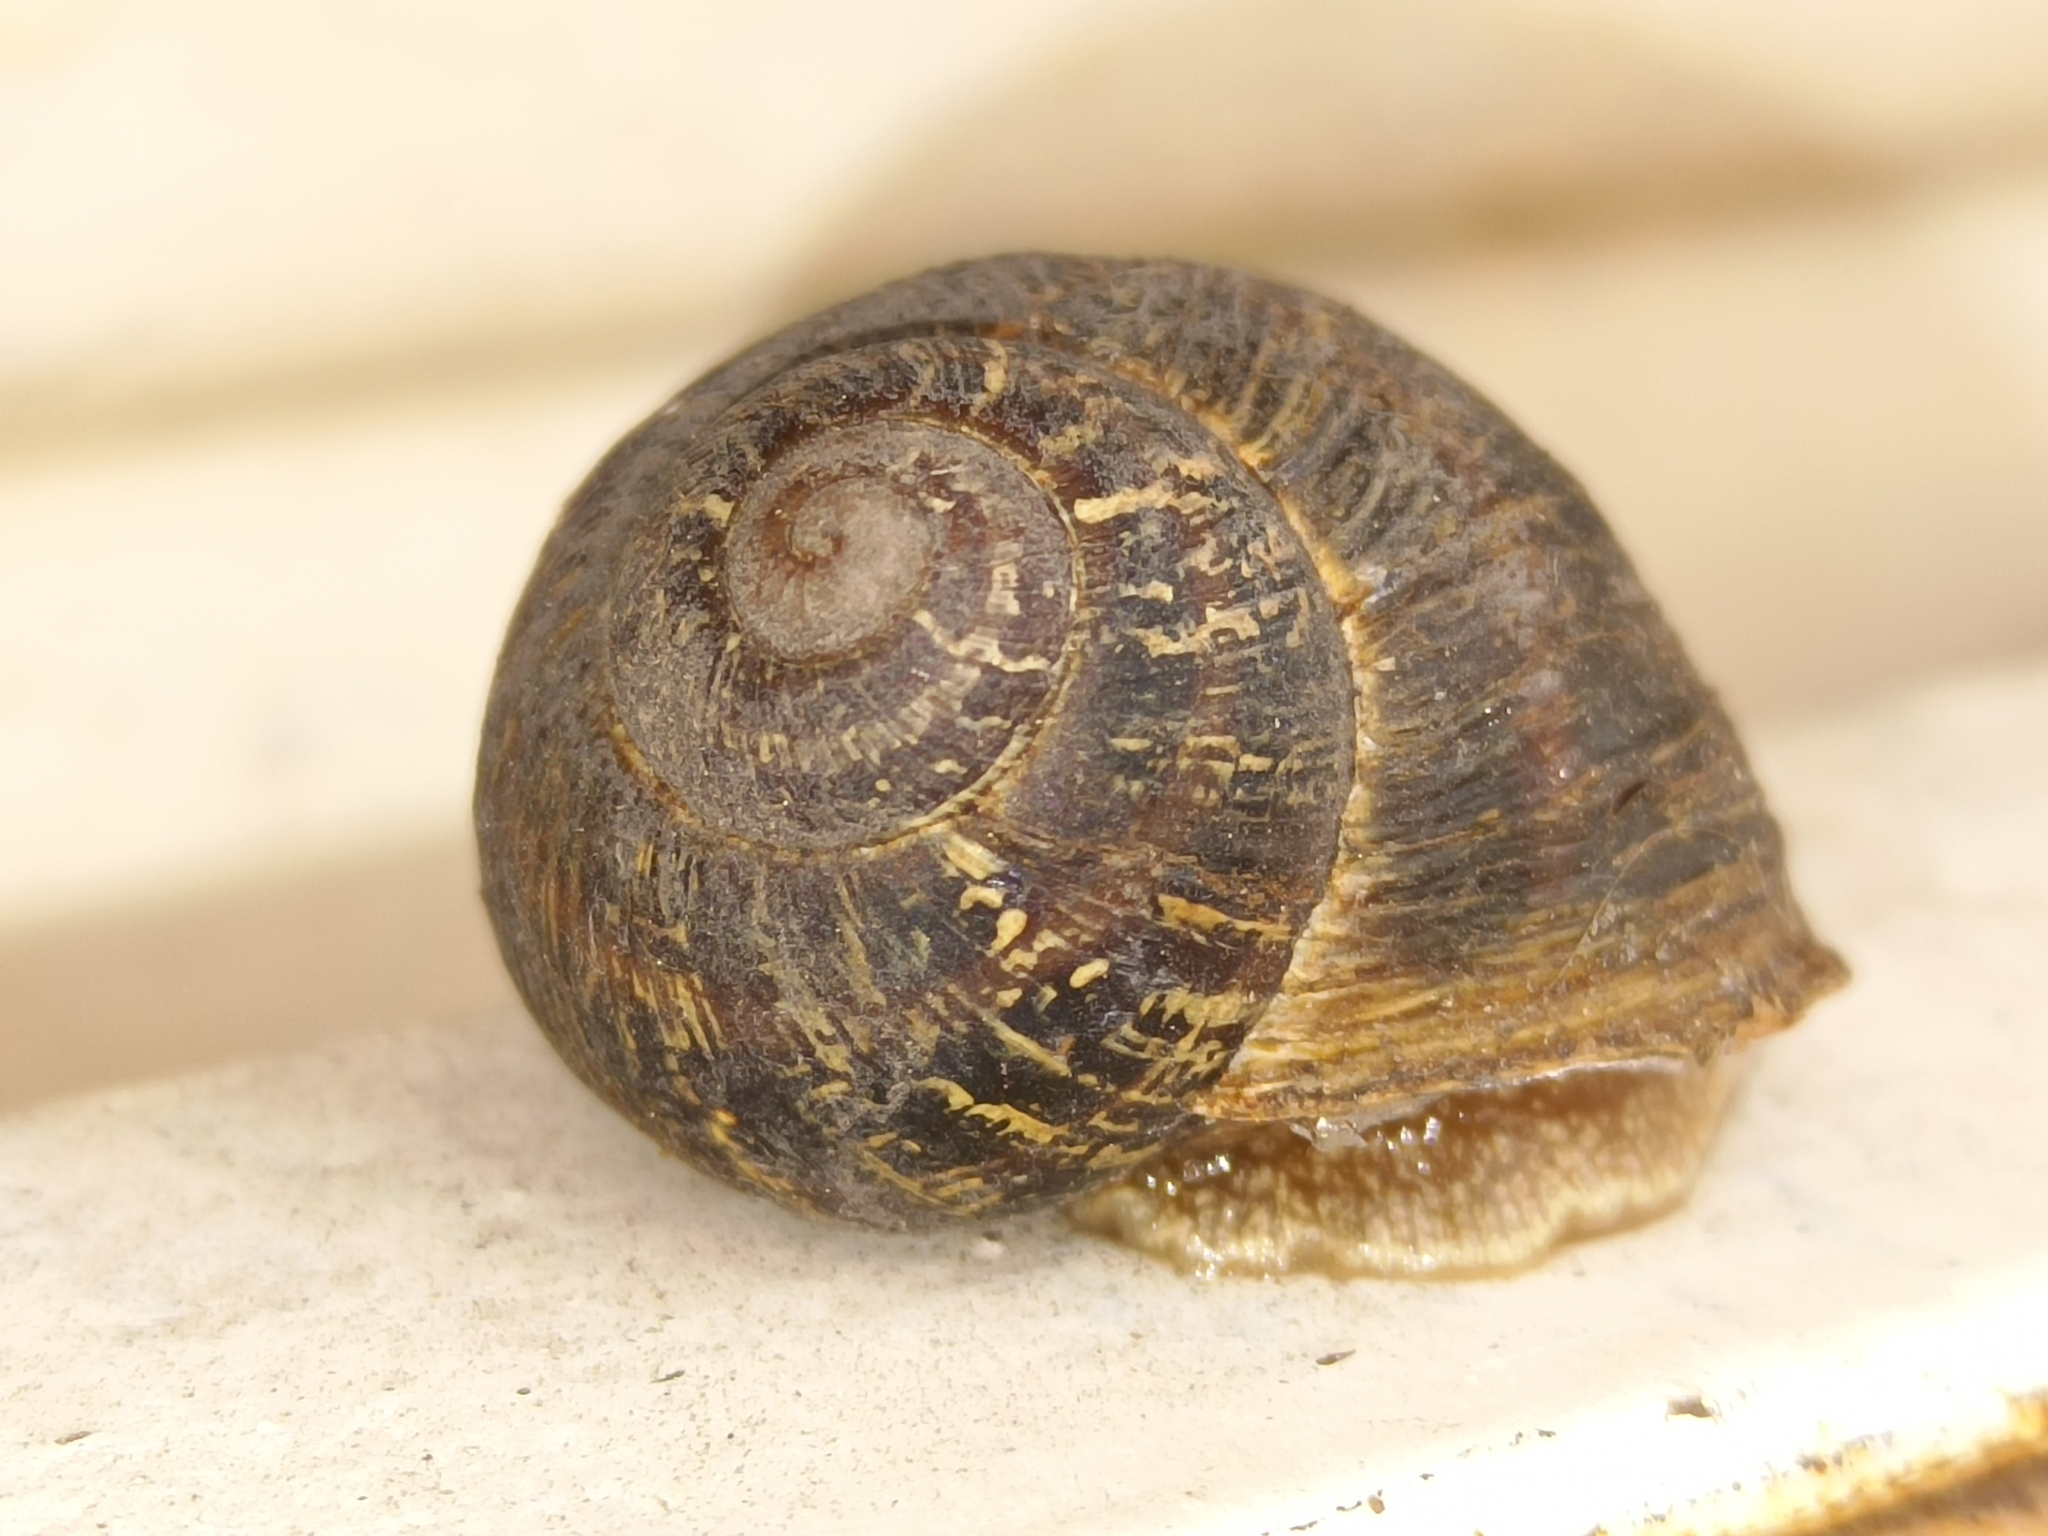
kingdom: Animalia
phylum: Mollusca
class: Gastropoda
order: Stylommatophora
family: Helicidae
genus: Cornu
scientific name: Cornu aspersum
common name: Brown garden snail
